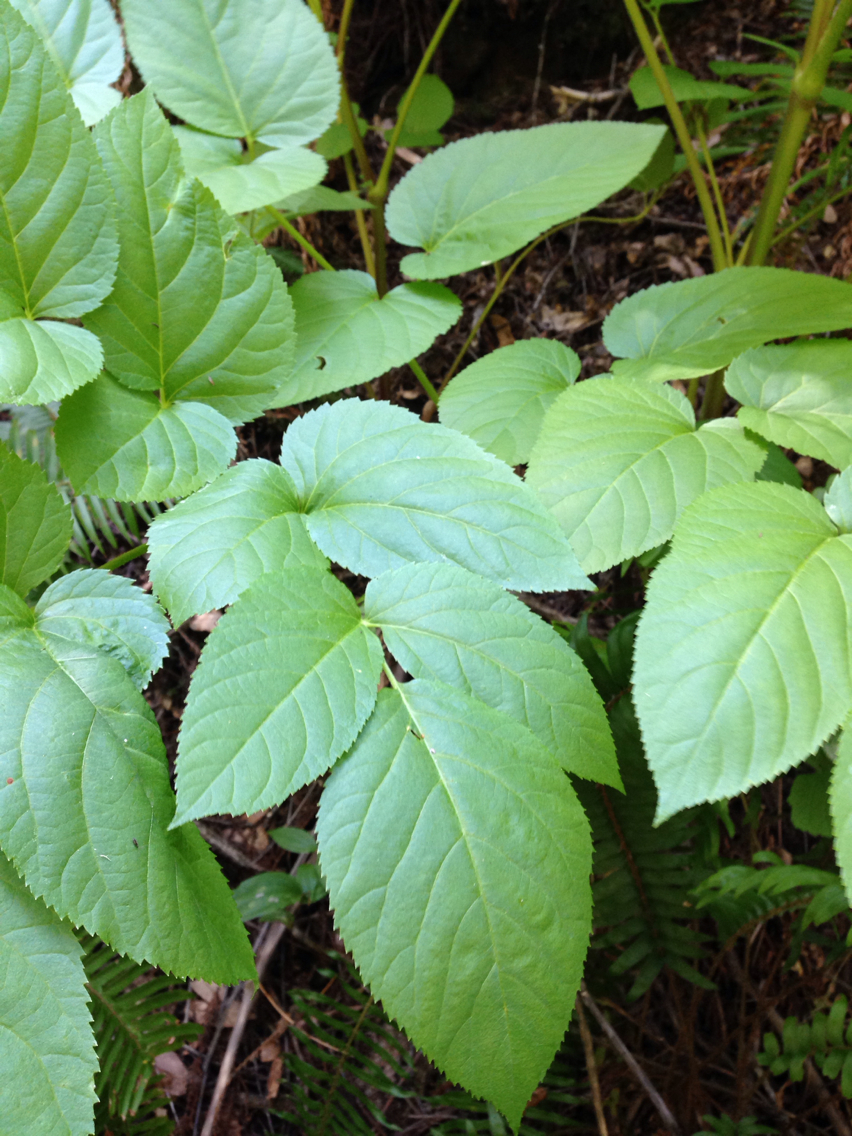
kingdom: Plantae
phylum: Tracheophyta
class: Magnoliopsida
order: Apiales
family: Araliaceae
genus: Aralia
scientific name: Aralia californica
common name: California-ginseng
